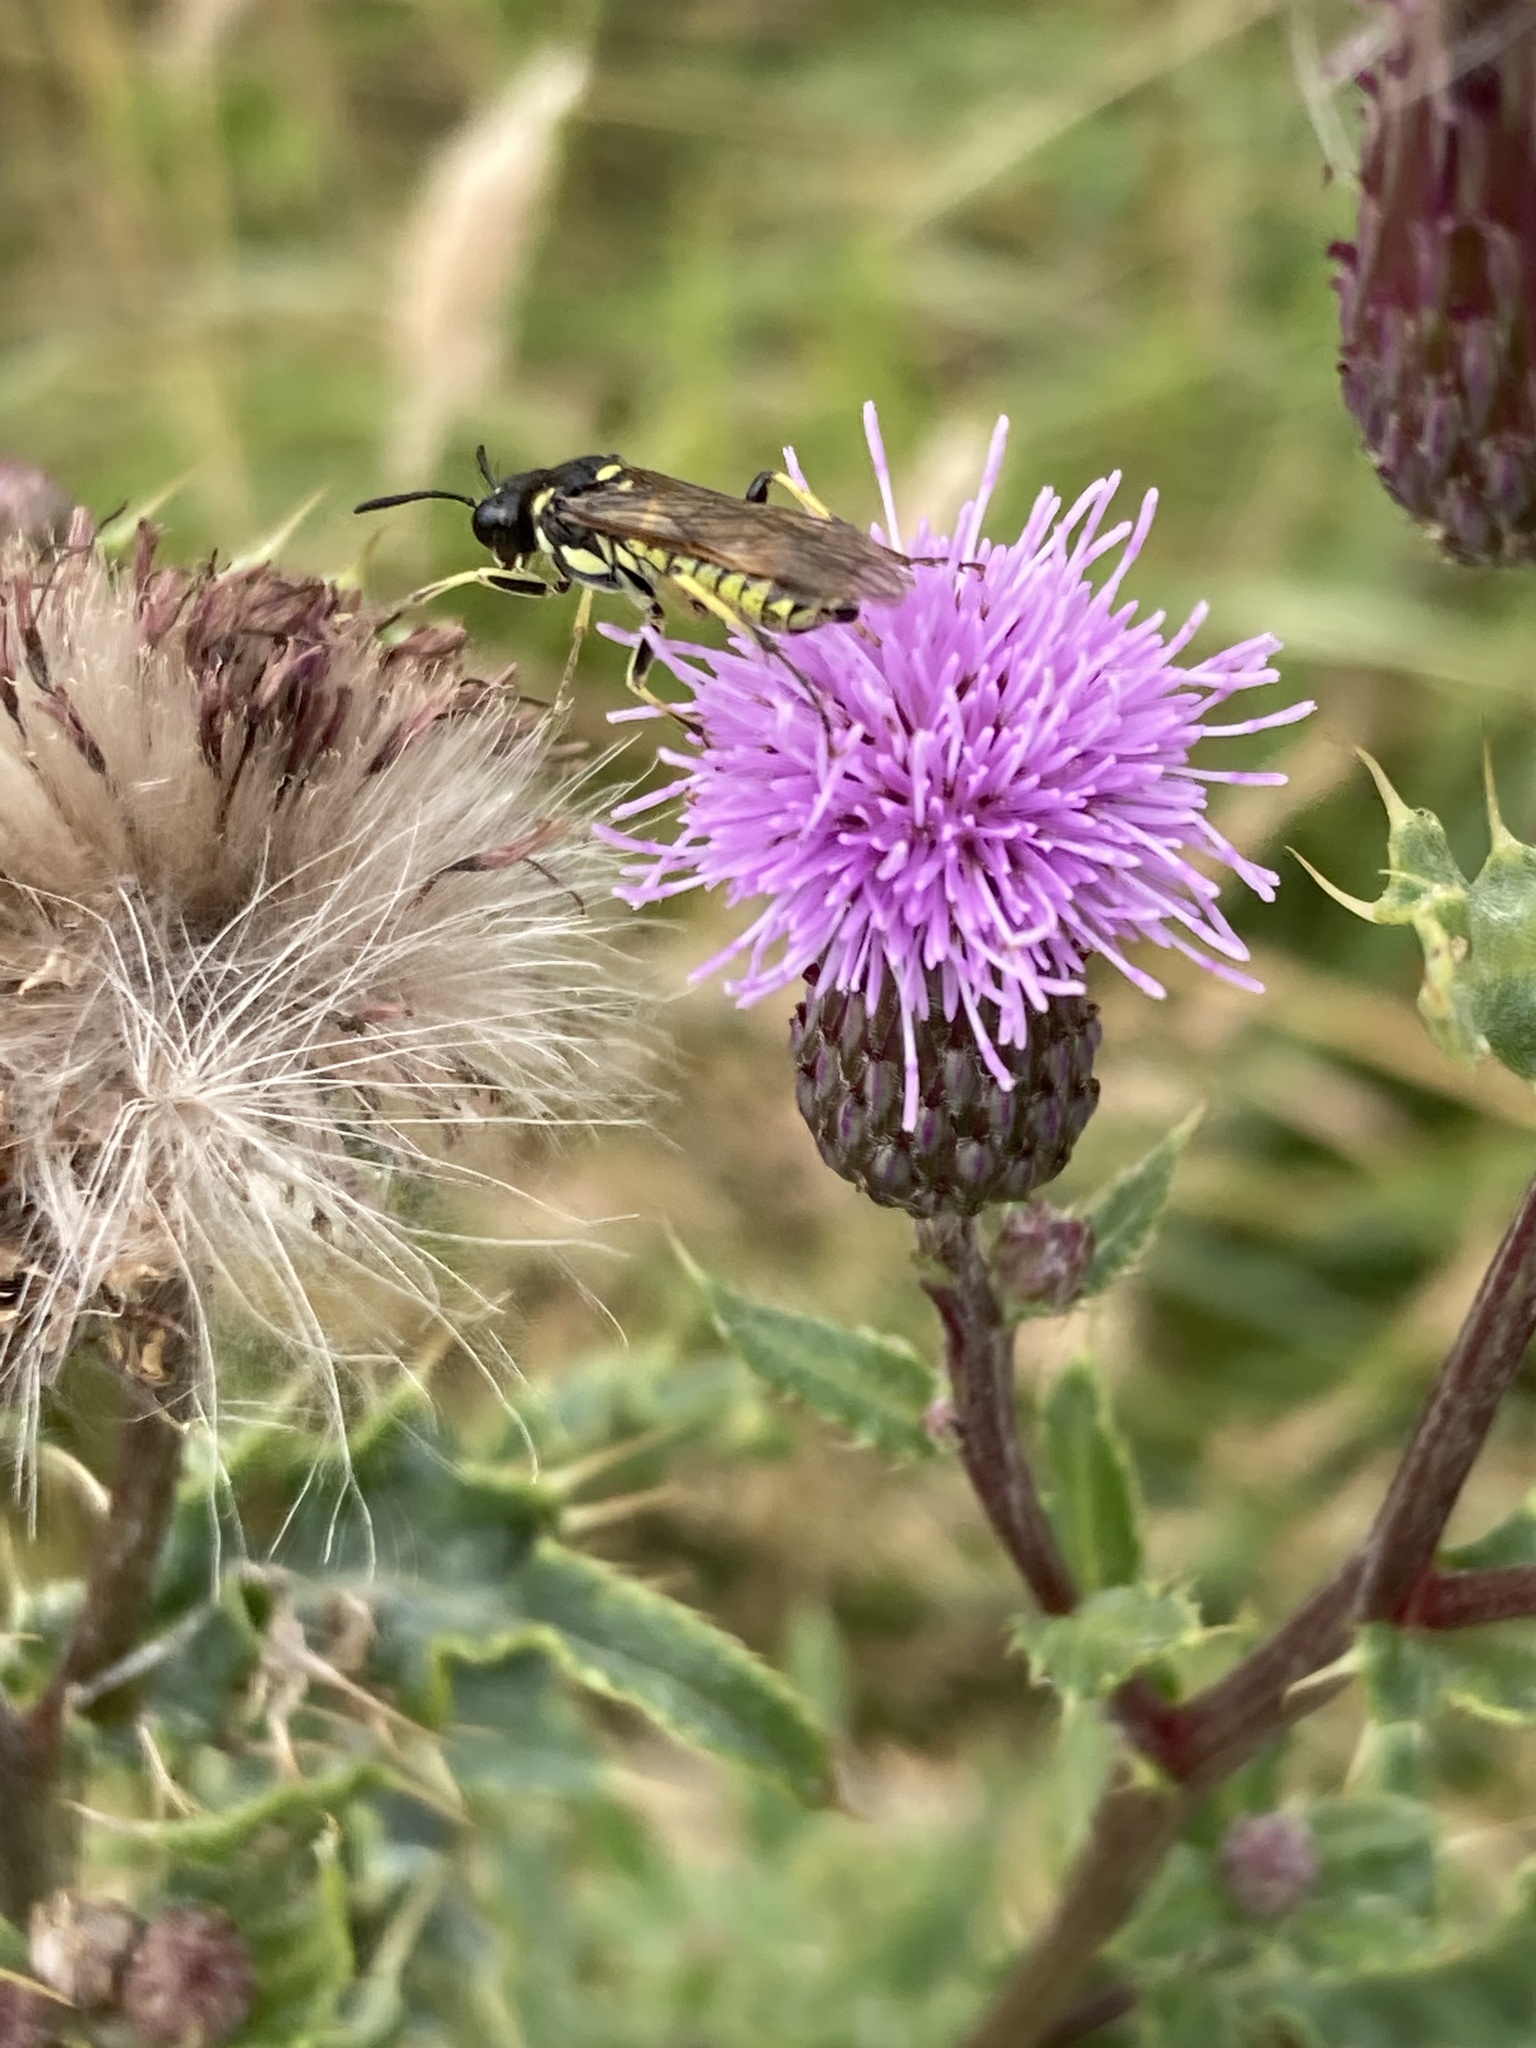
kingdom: Animalia
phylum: Arthropoda
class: Insecta
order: Hymenoptera
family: Tenthredinidae
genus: Tenthredo
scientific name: Tenthredo
